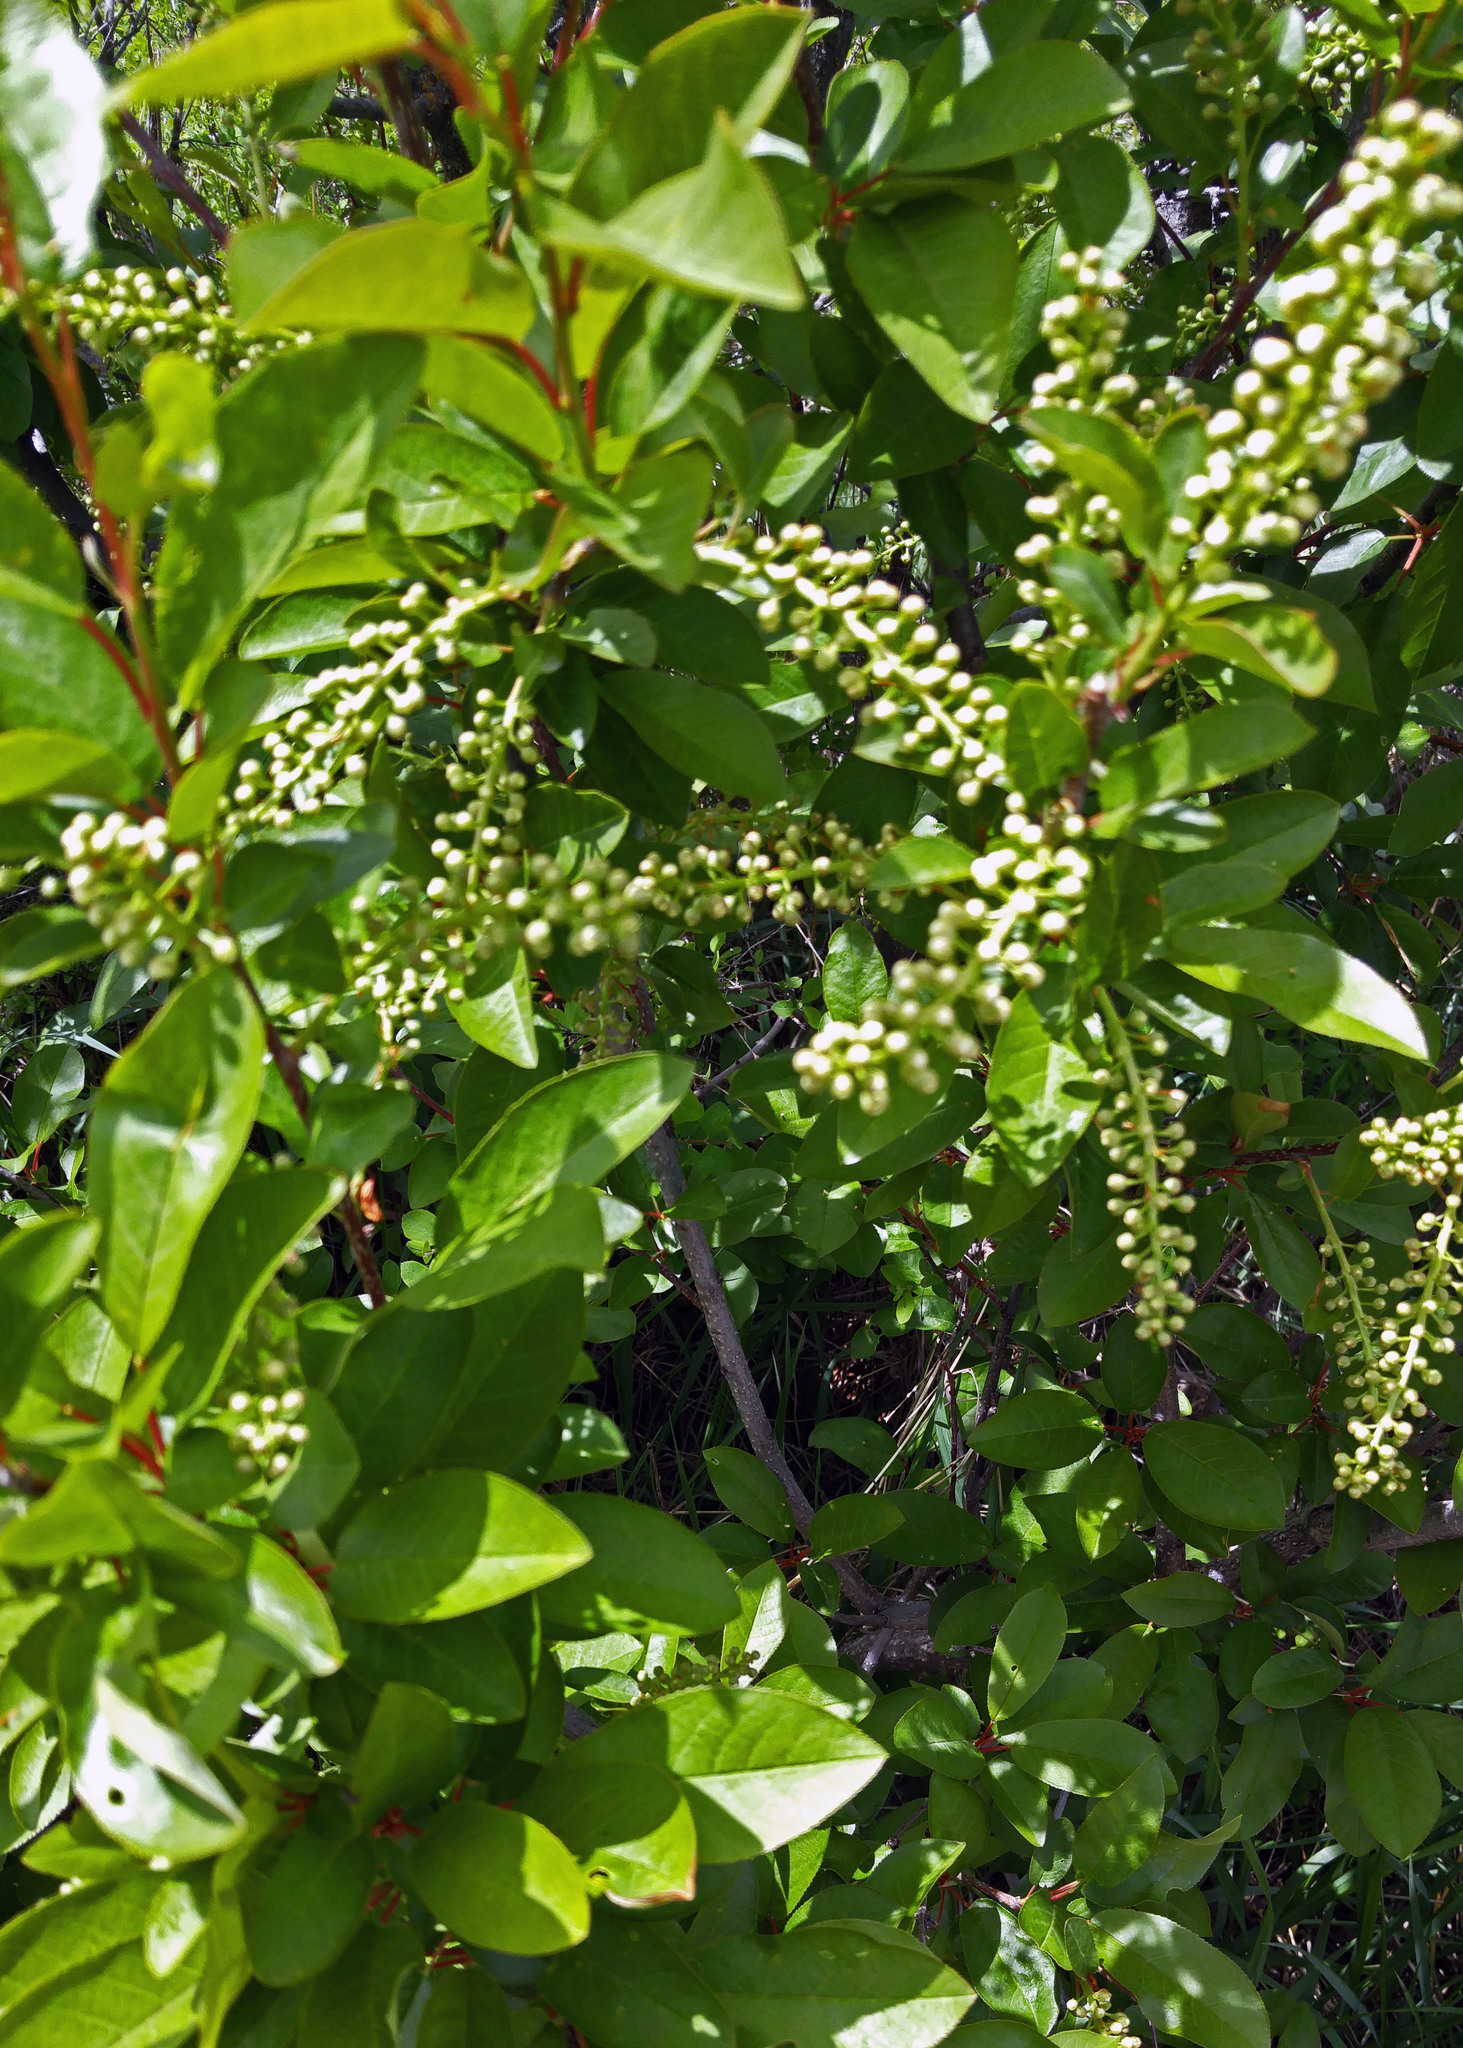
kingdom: Plantae
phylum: Tracheophyta
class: Magnoliopsida
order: Rosales
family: Rosaceae
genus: Prunus
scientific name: Prunus virginiana
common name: Chokecherry
